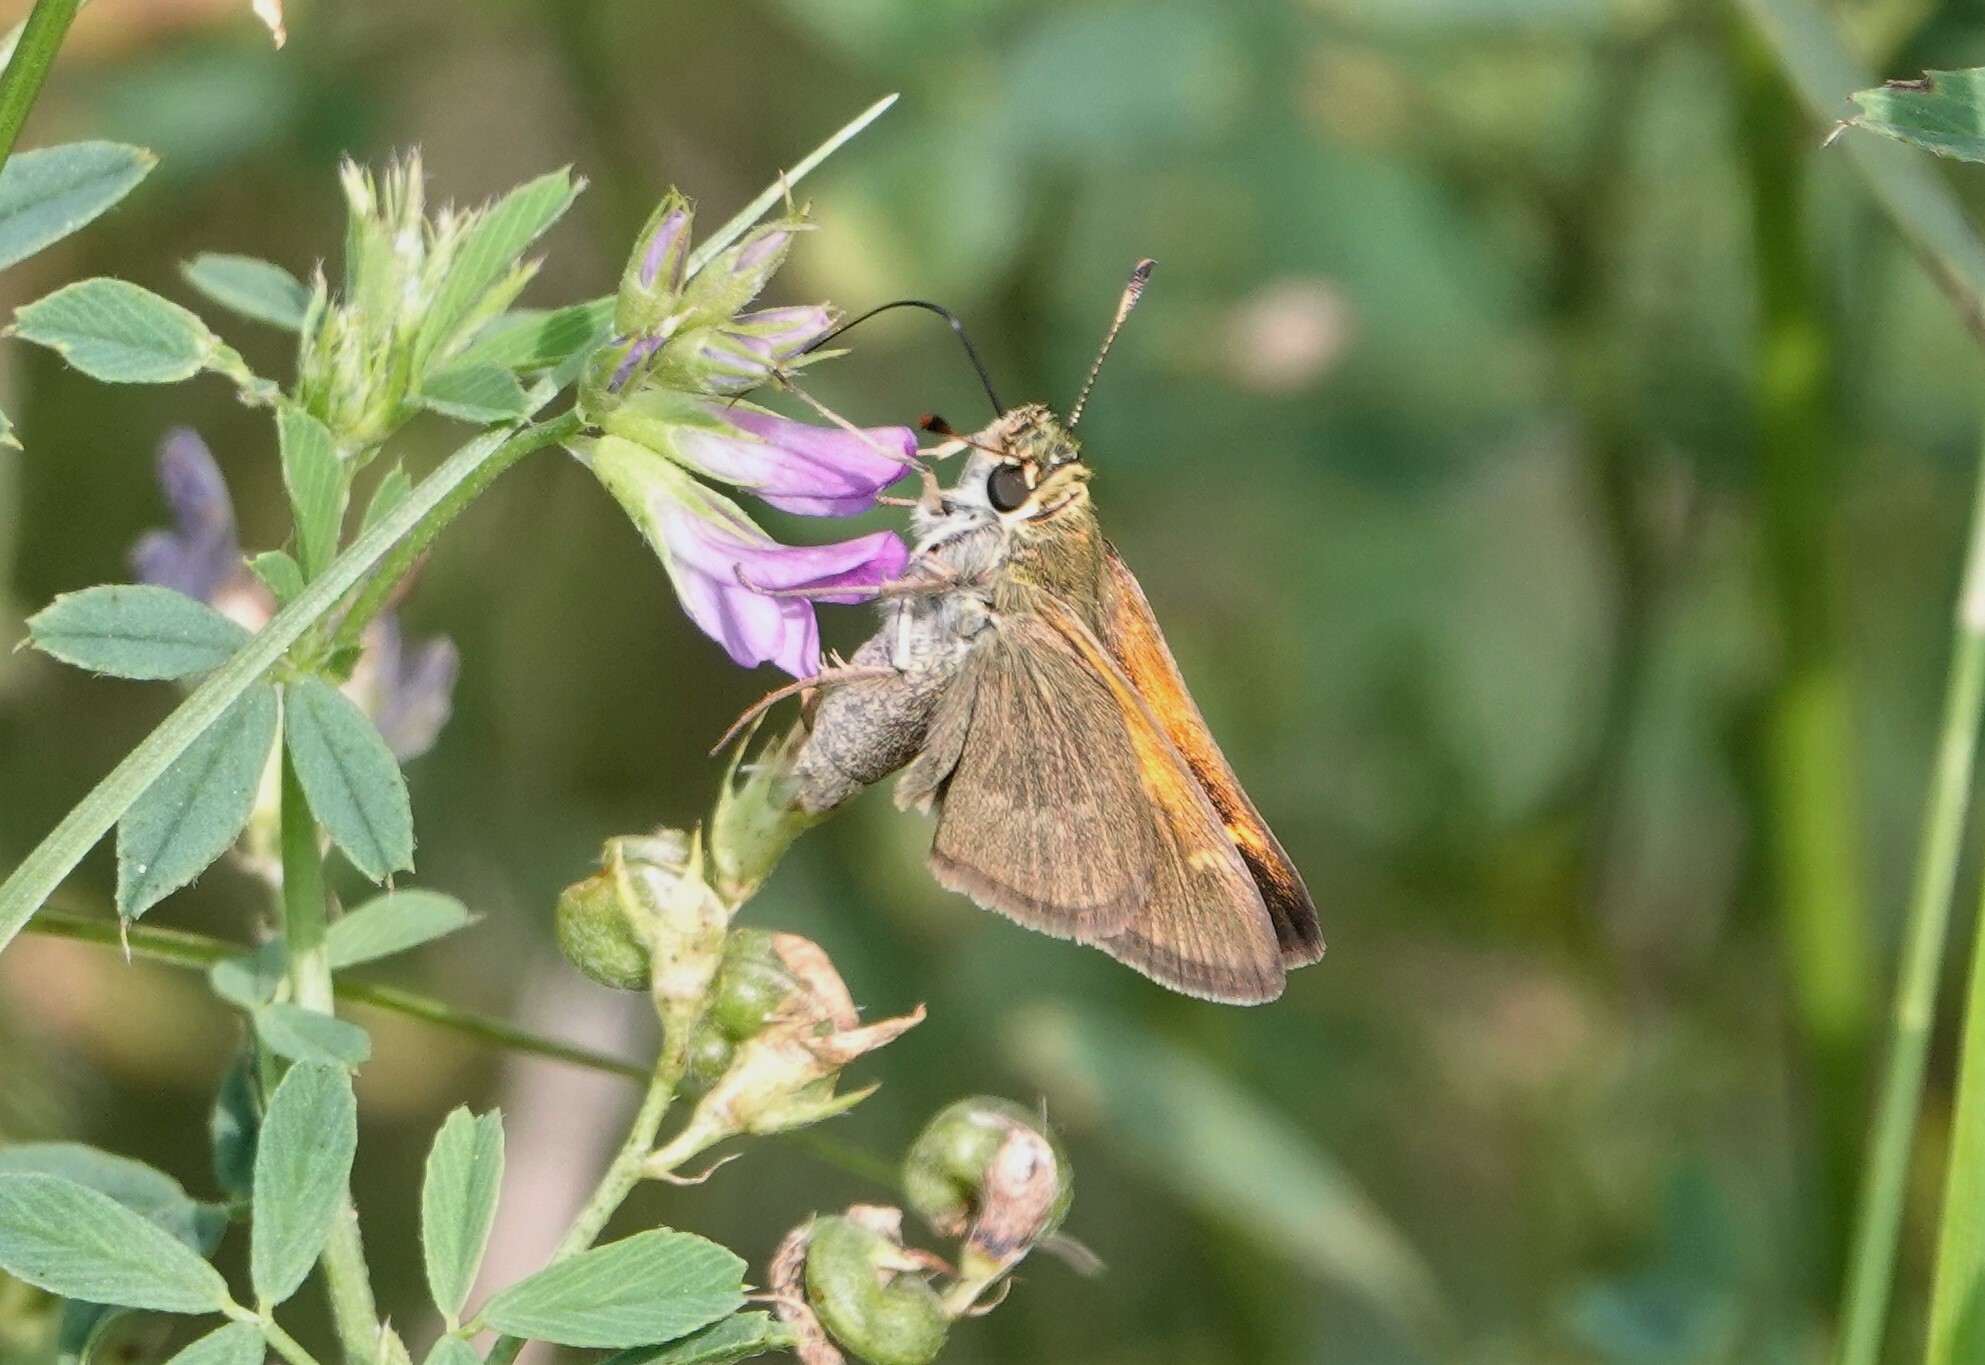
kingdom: Animalia
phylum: Arthropoda
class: Insecta
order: Lepidoptera
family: Hesperiidae
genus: Polites
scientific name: Polites themistocles
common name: Tawny-edged skipper
